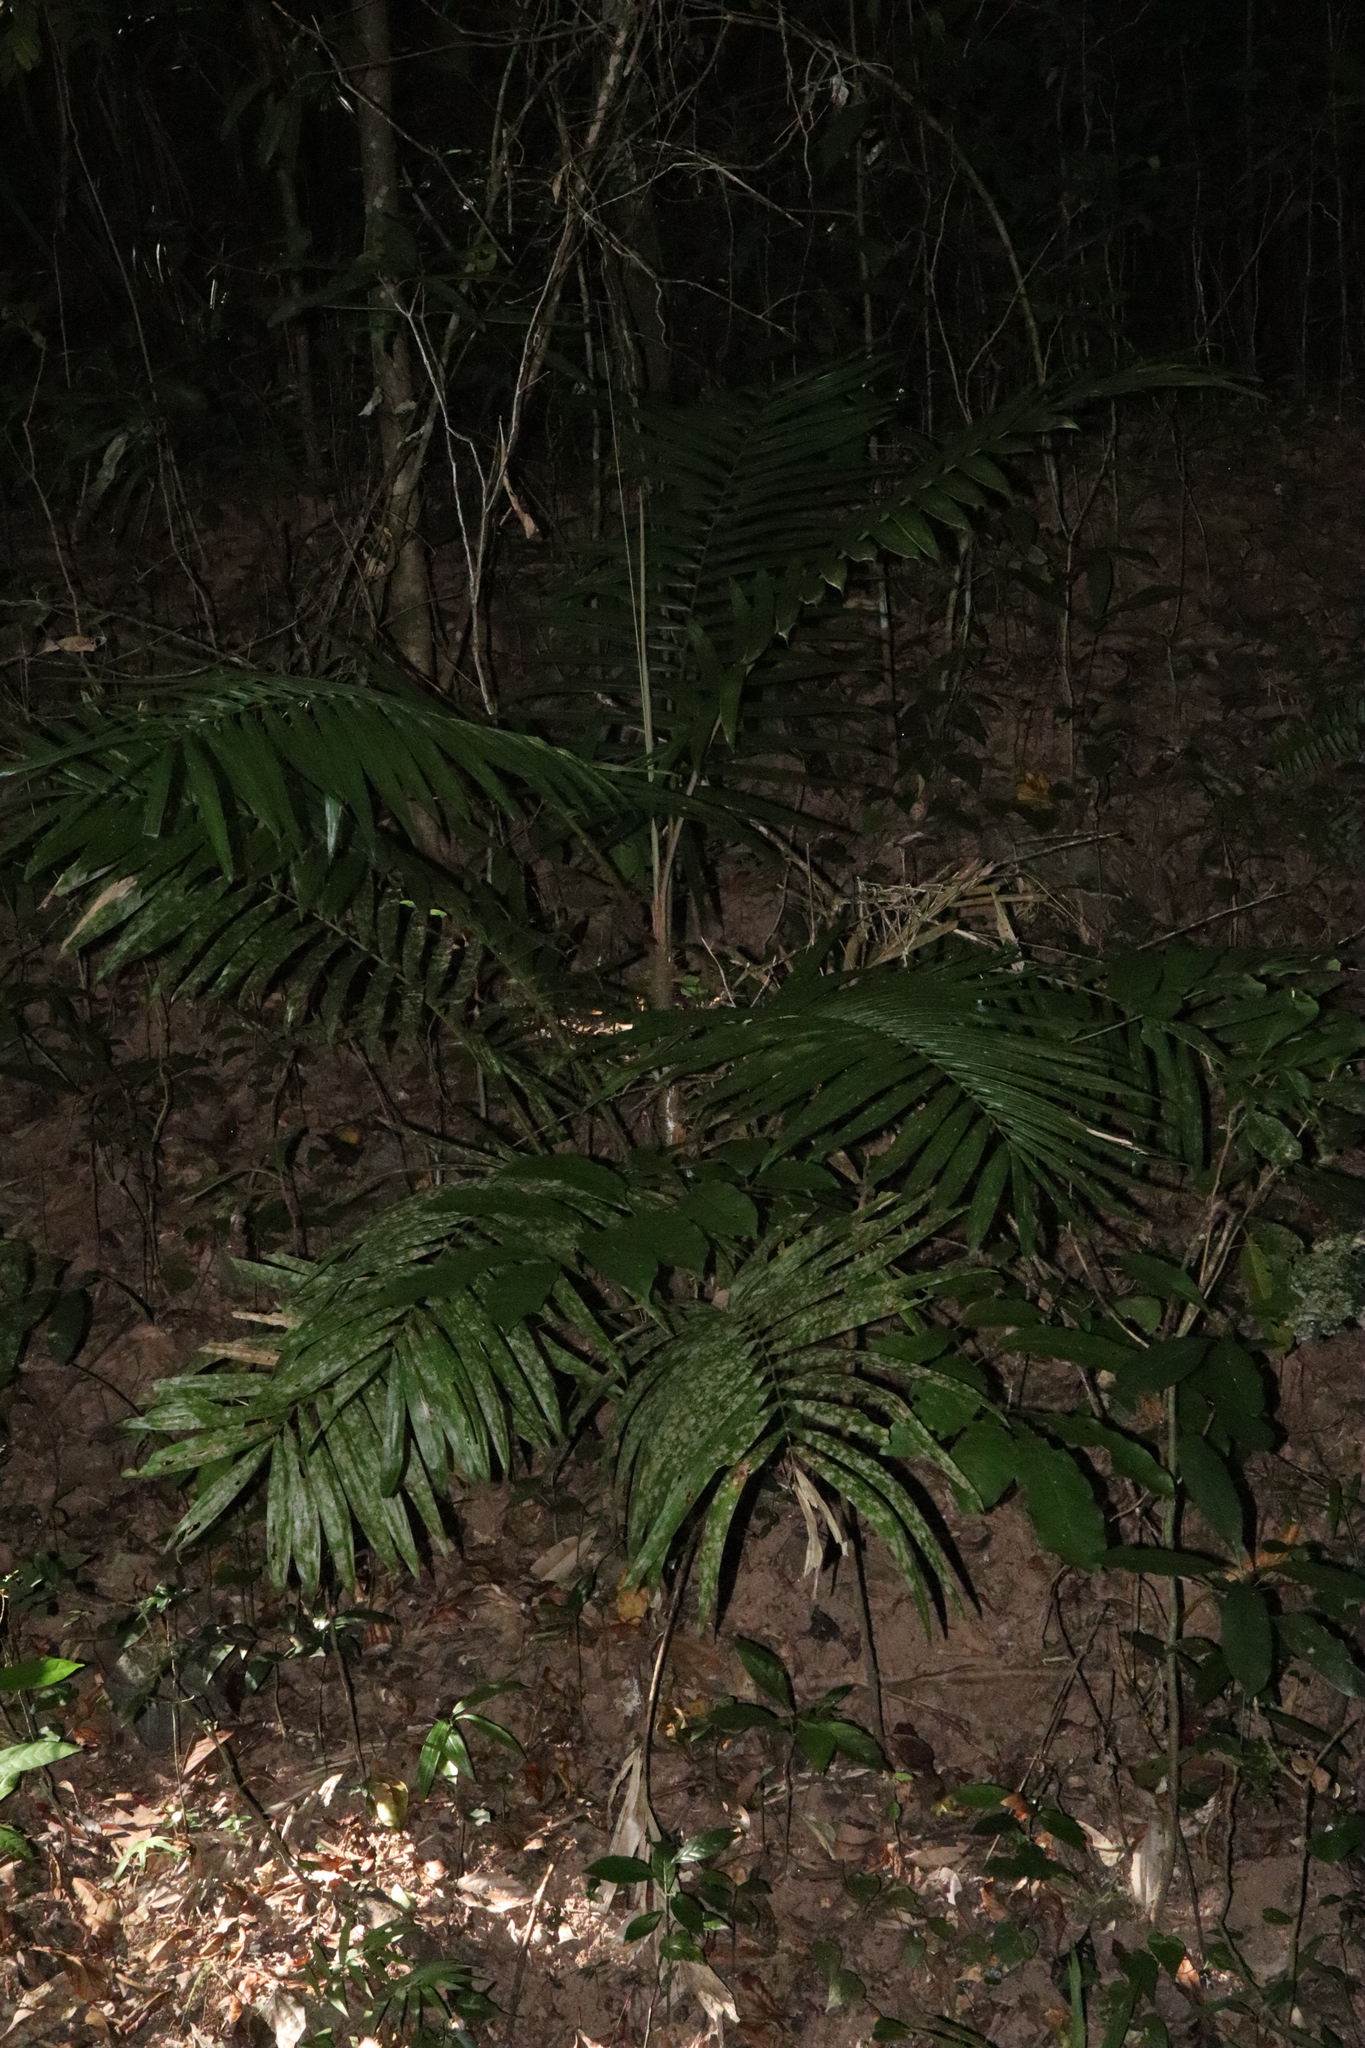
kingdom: Plantae
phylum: Tracheophyta
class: Liliopsida
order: Arecales
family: Arecaceae
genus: Calamus
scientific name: Calamus australis
